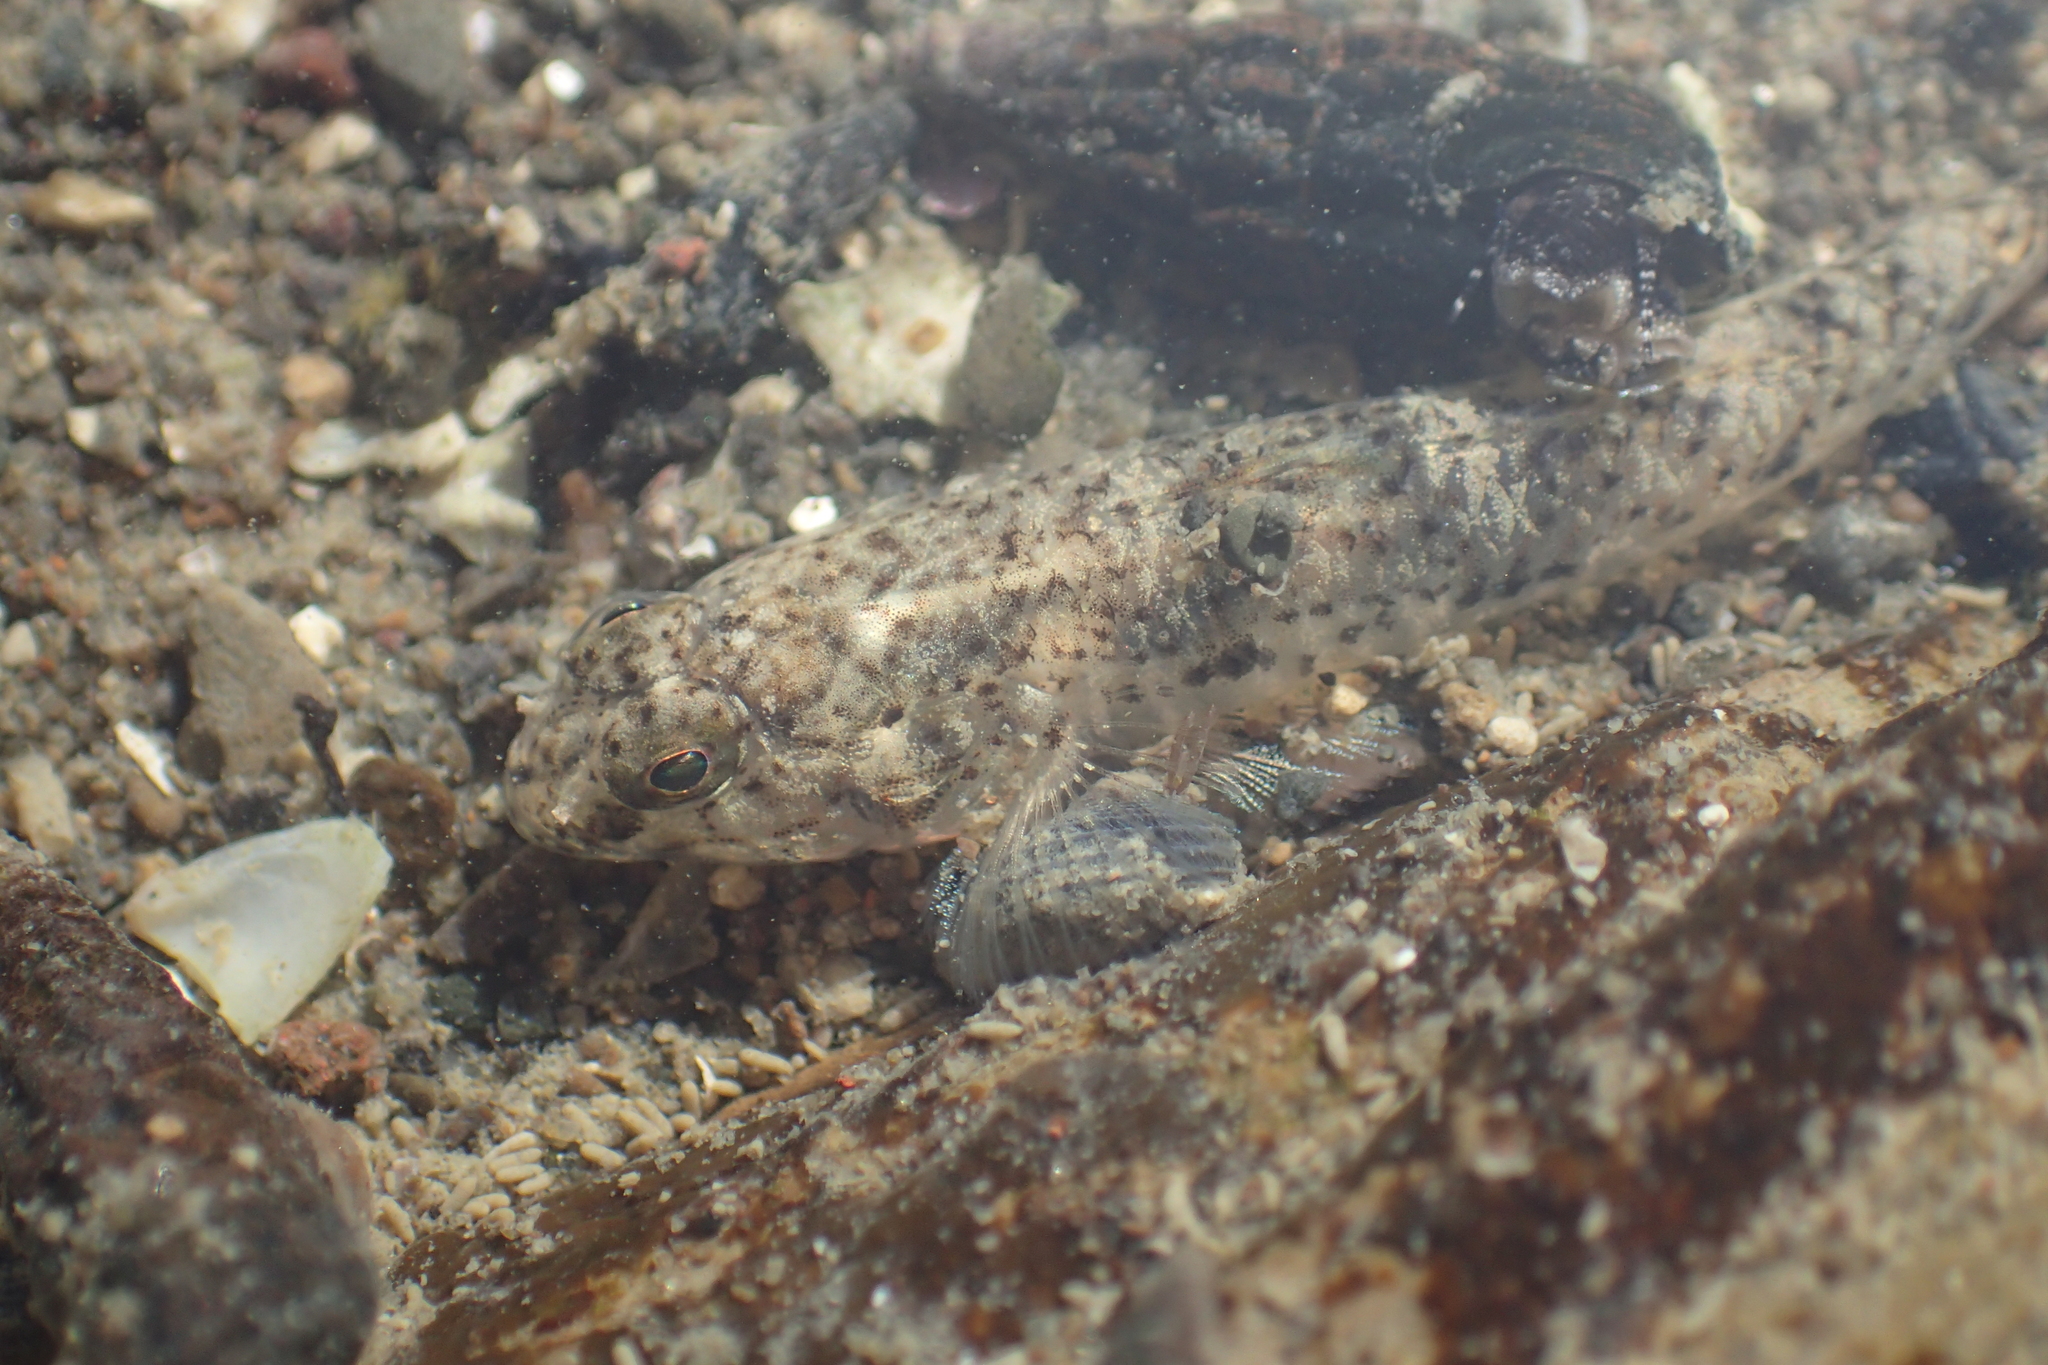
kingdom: Animalia
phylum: Chordata
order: Perciformes
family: Gobiidae
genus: Favonigobius
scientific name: Favonigobius exquisitus
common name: Exquisite sand-goby
